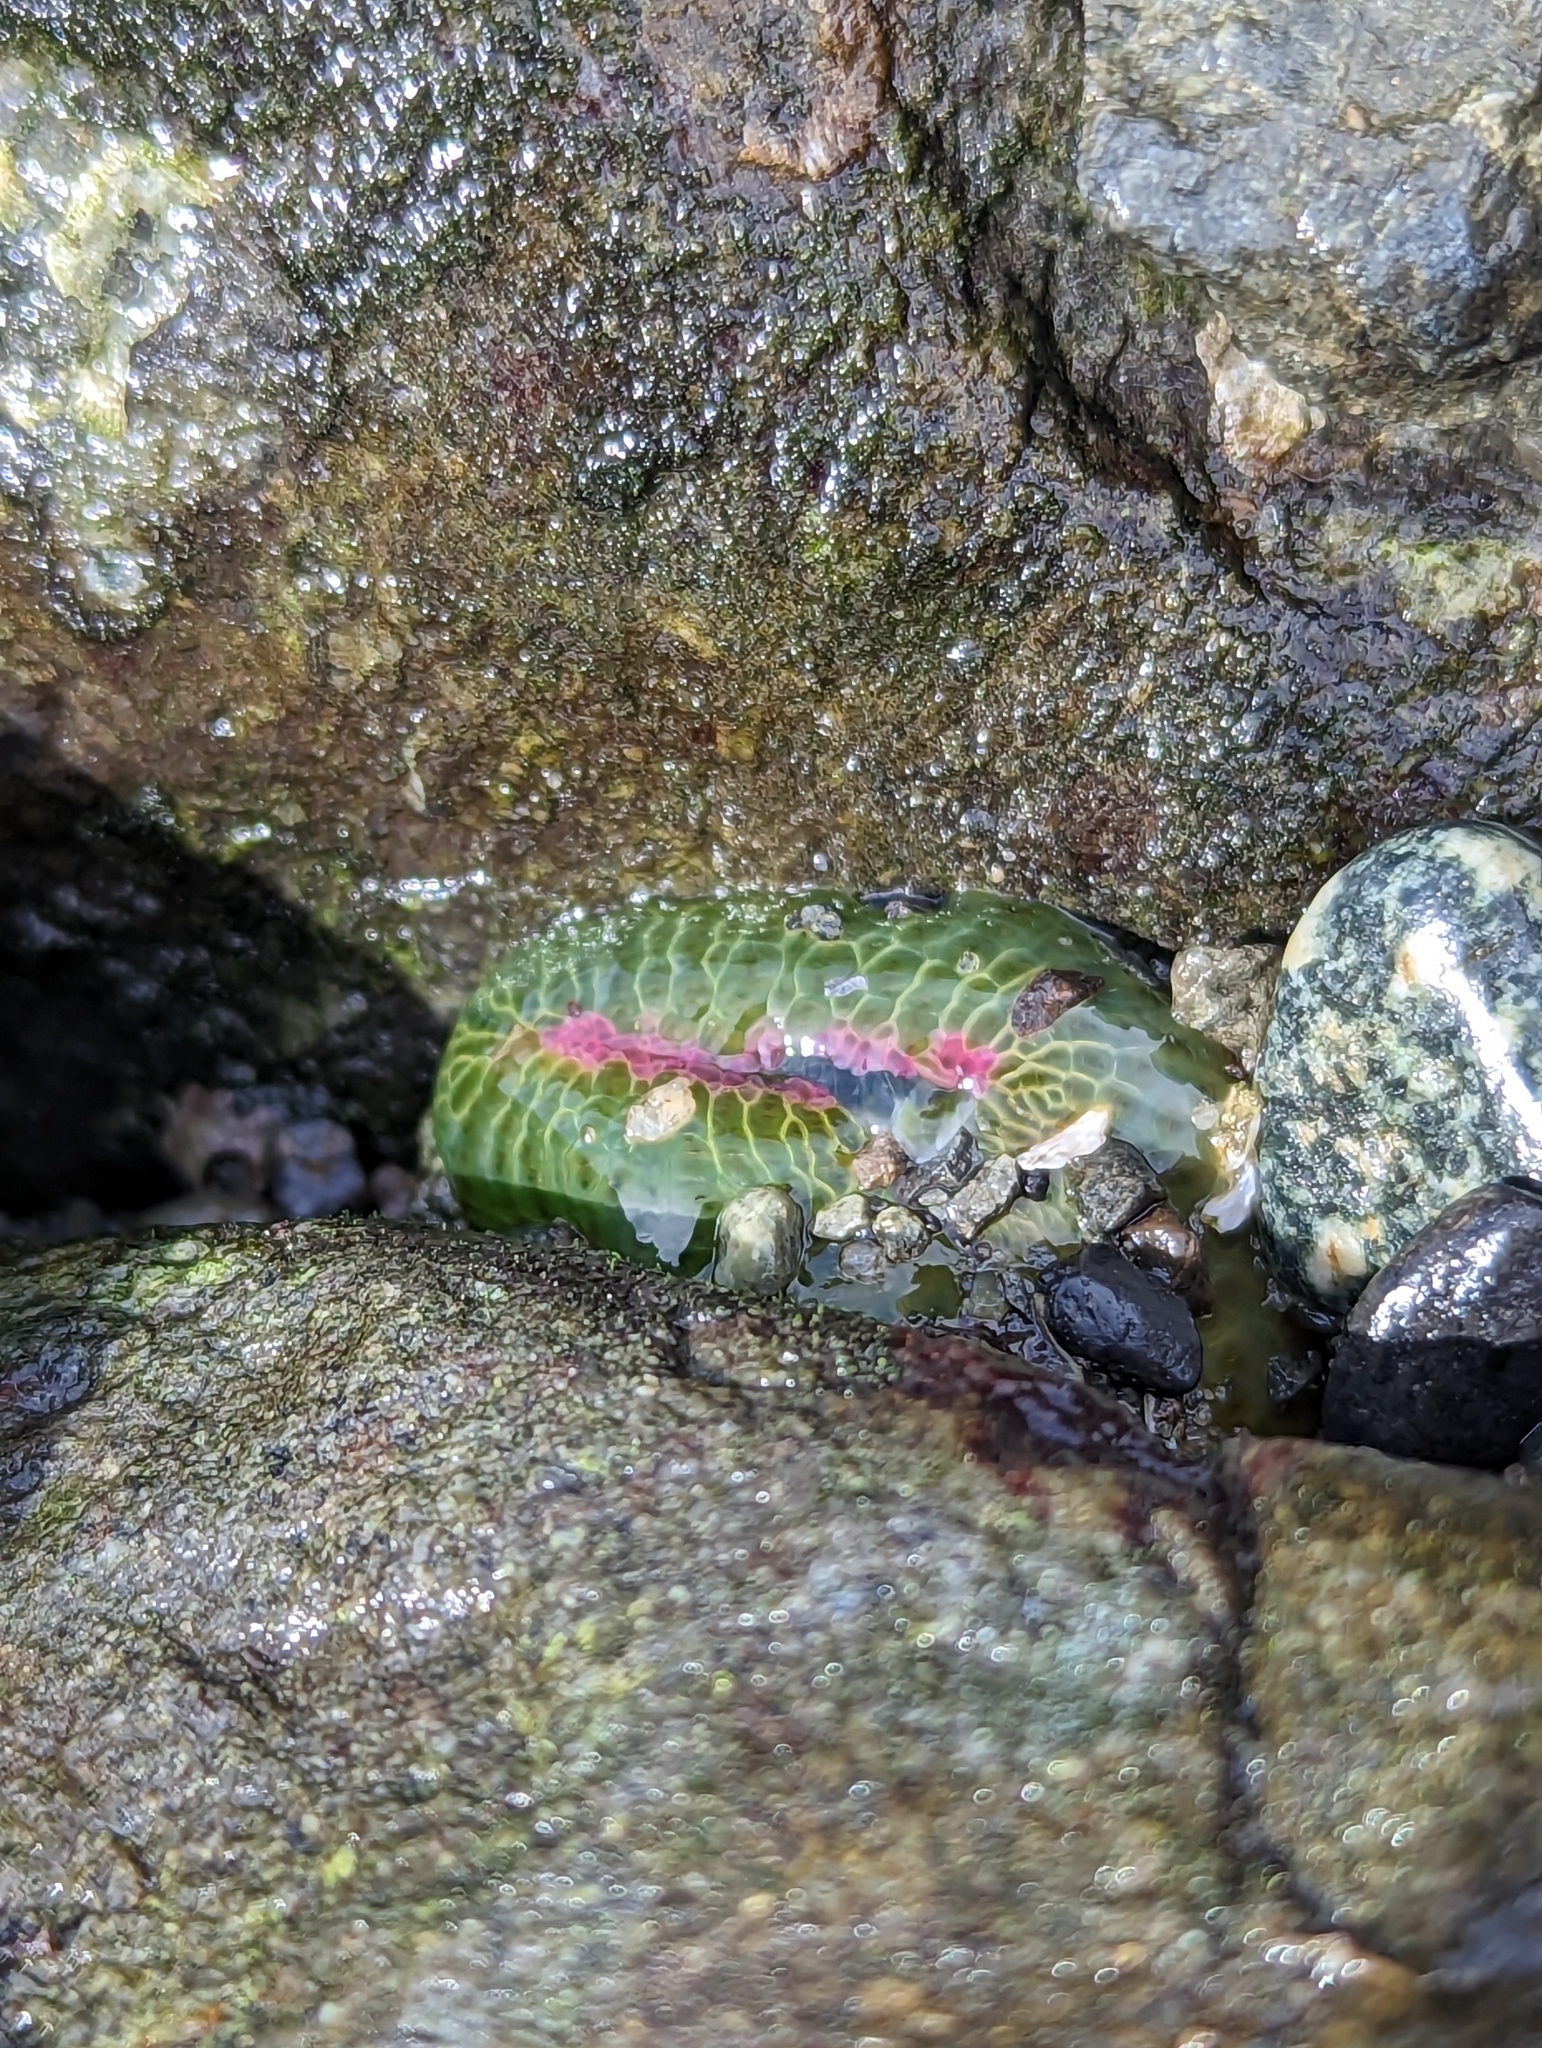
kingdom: Animalia
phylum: Cnidaria
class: Anthozoa
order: Actiniaria
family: Actiniidae
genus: Anthopleura
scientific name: Anthopleura elegantissima
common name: Clonal anemone
